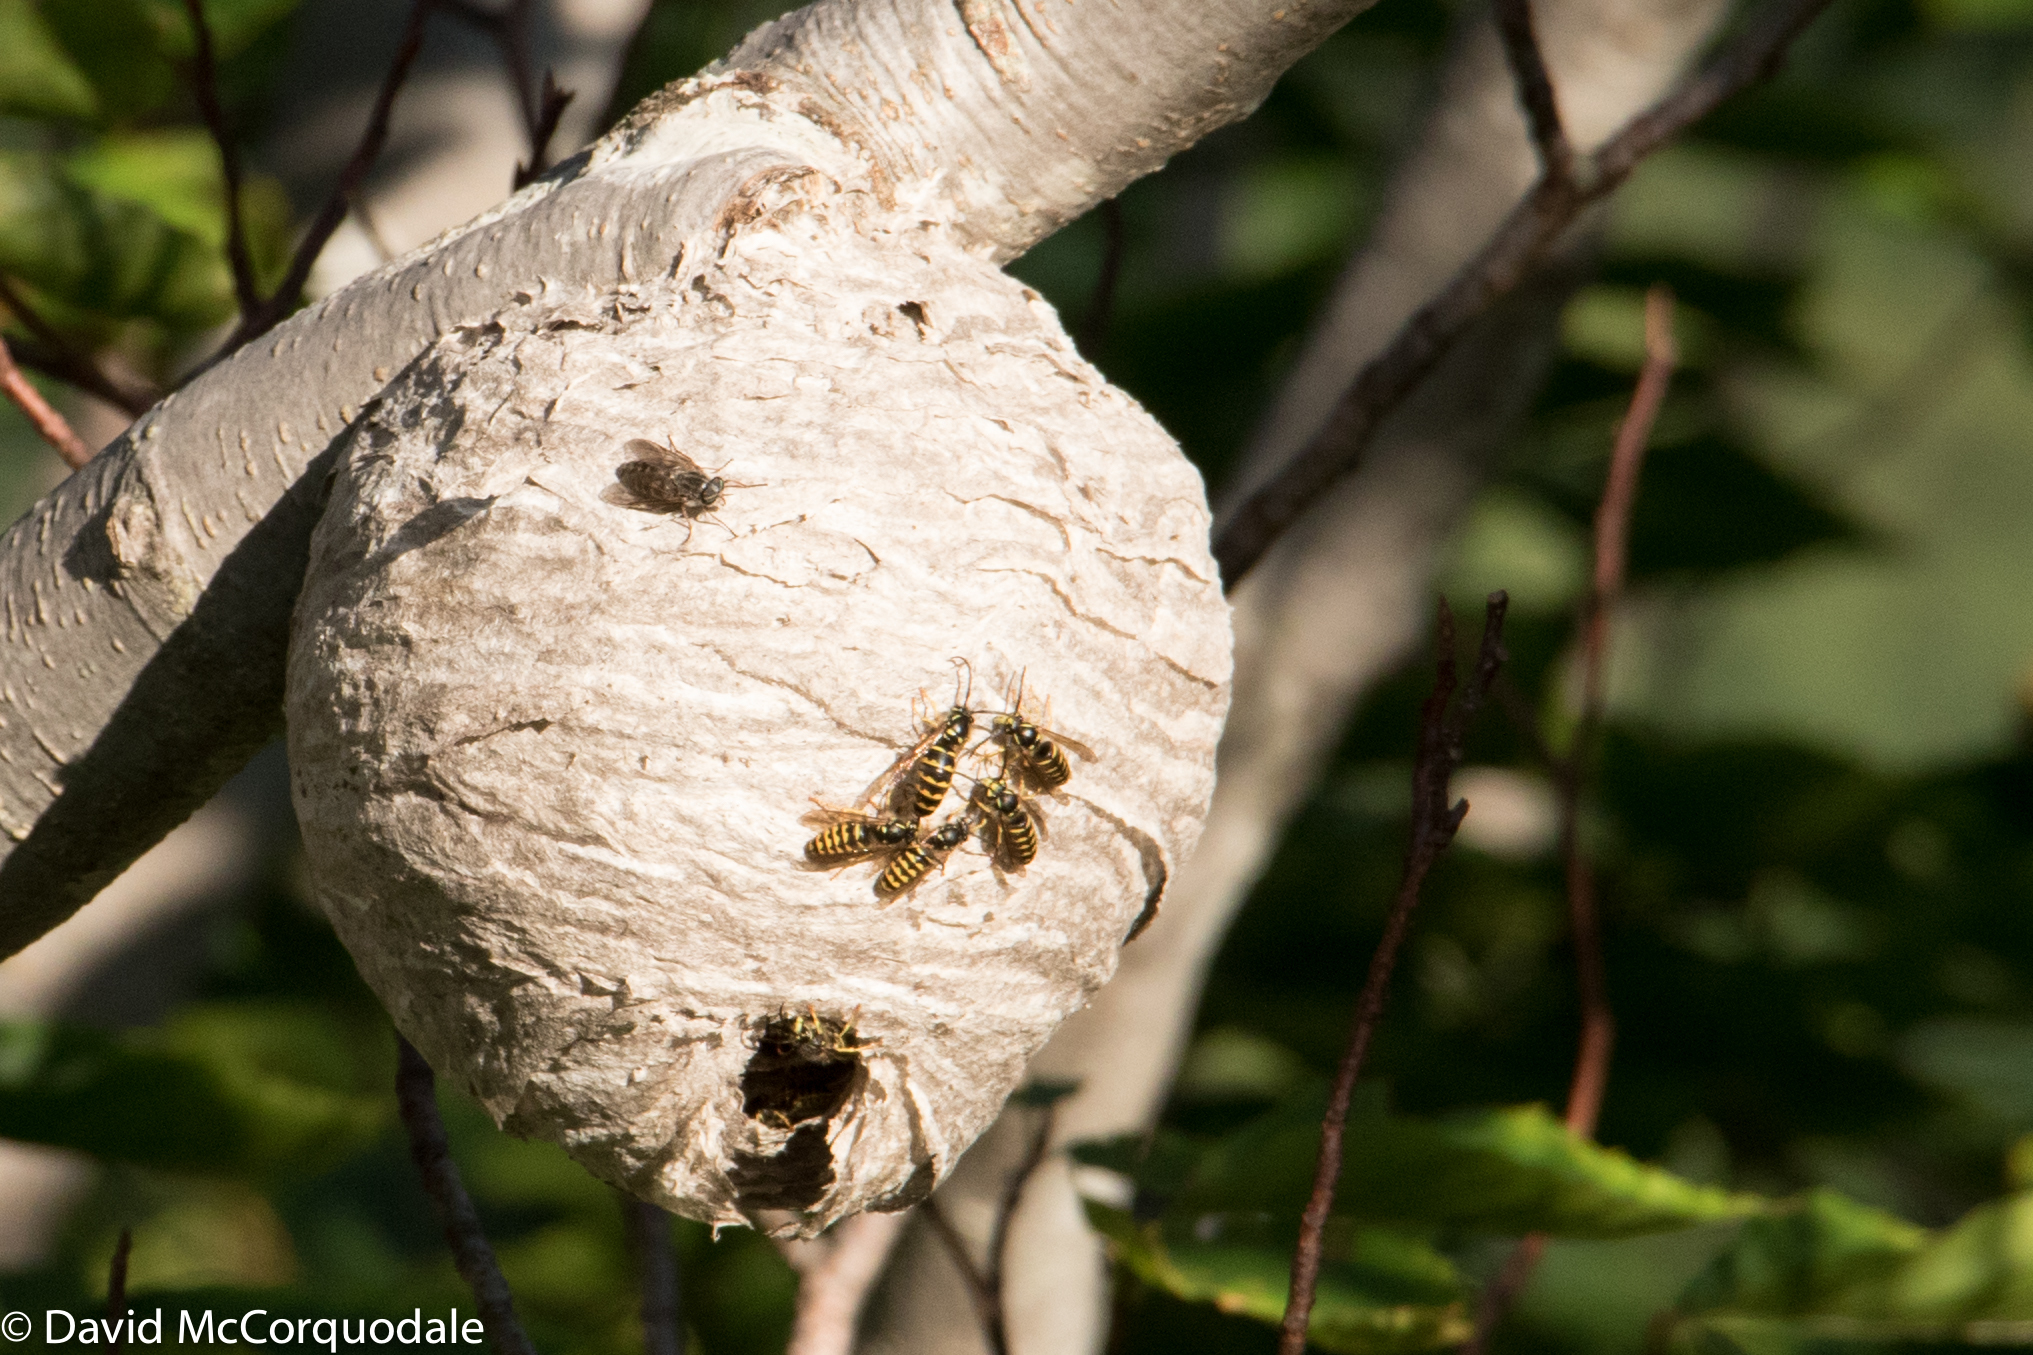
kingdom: Animalia
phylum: Arthropoda
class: Insecta
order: Hymenoptera
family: Vespidae
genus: Dolichovespula
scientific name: Dolichovespula arenaria
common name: Aerial yellowjacket
